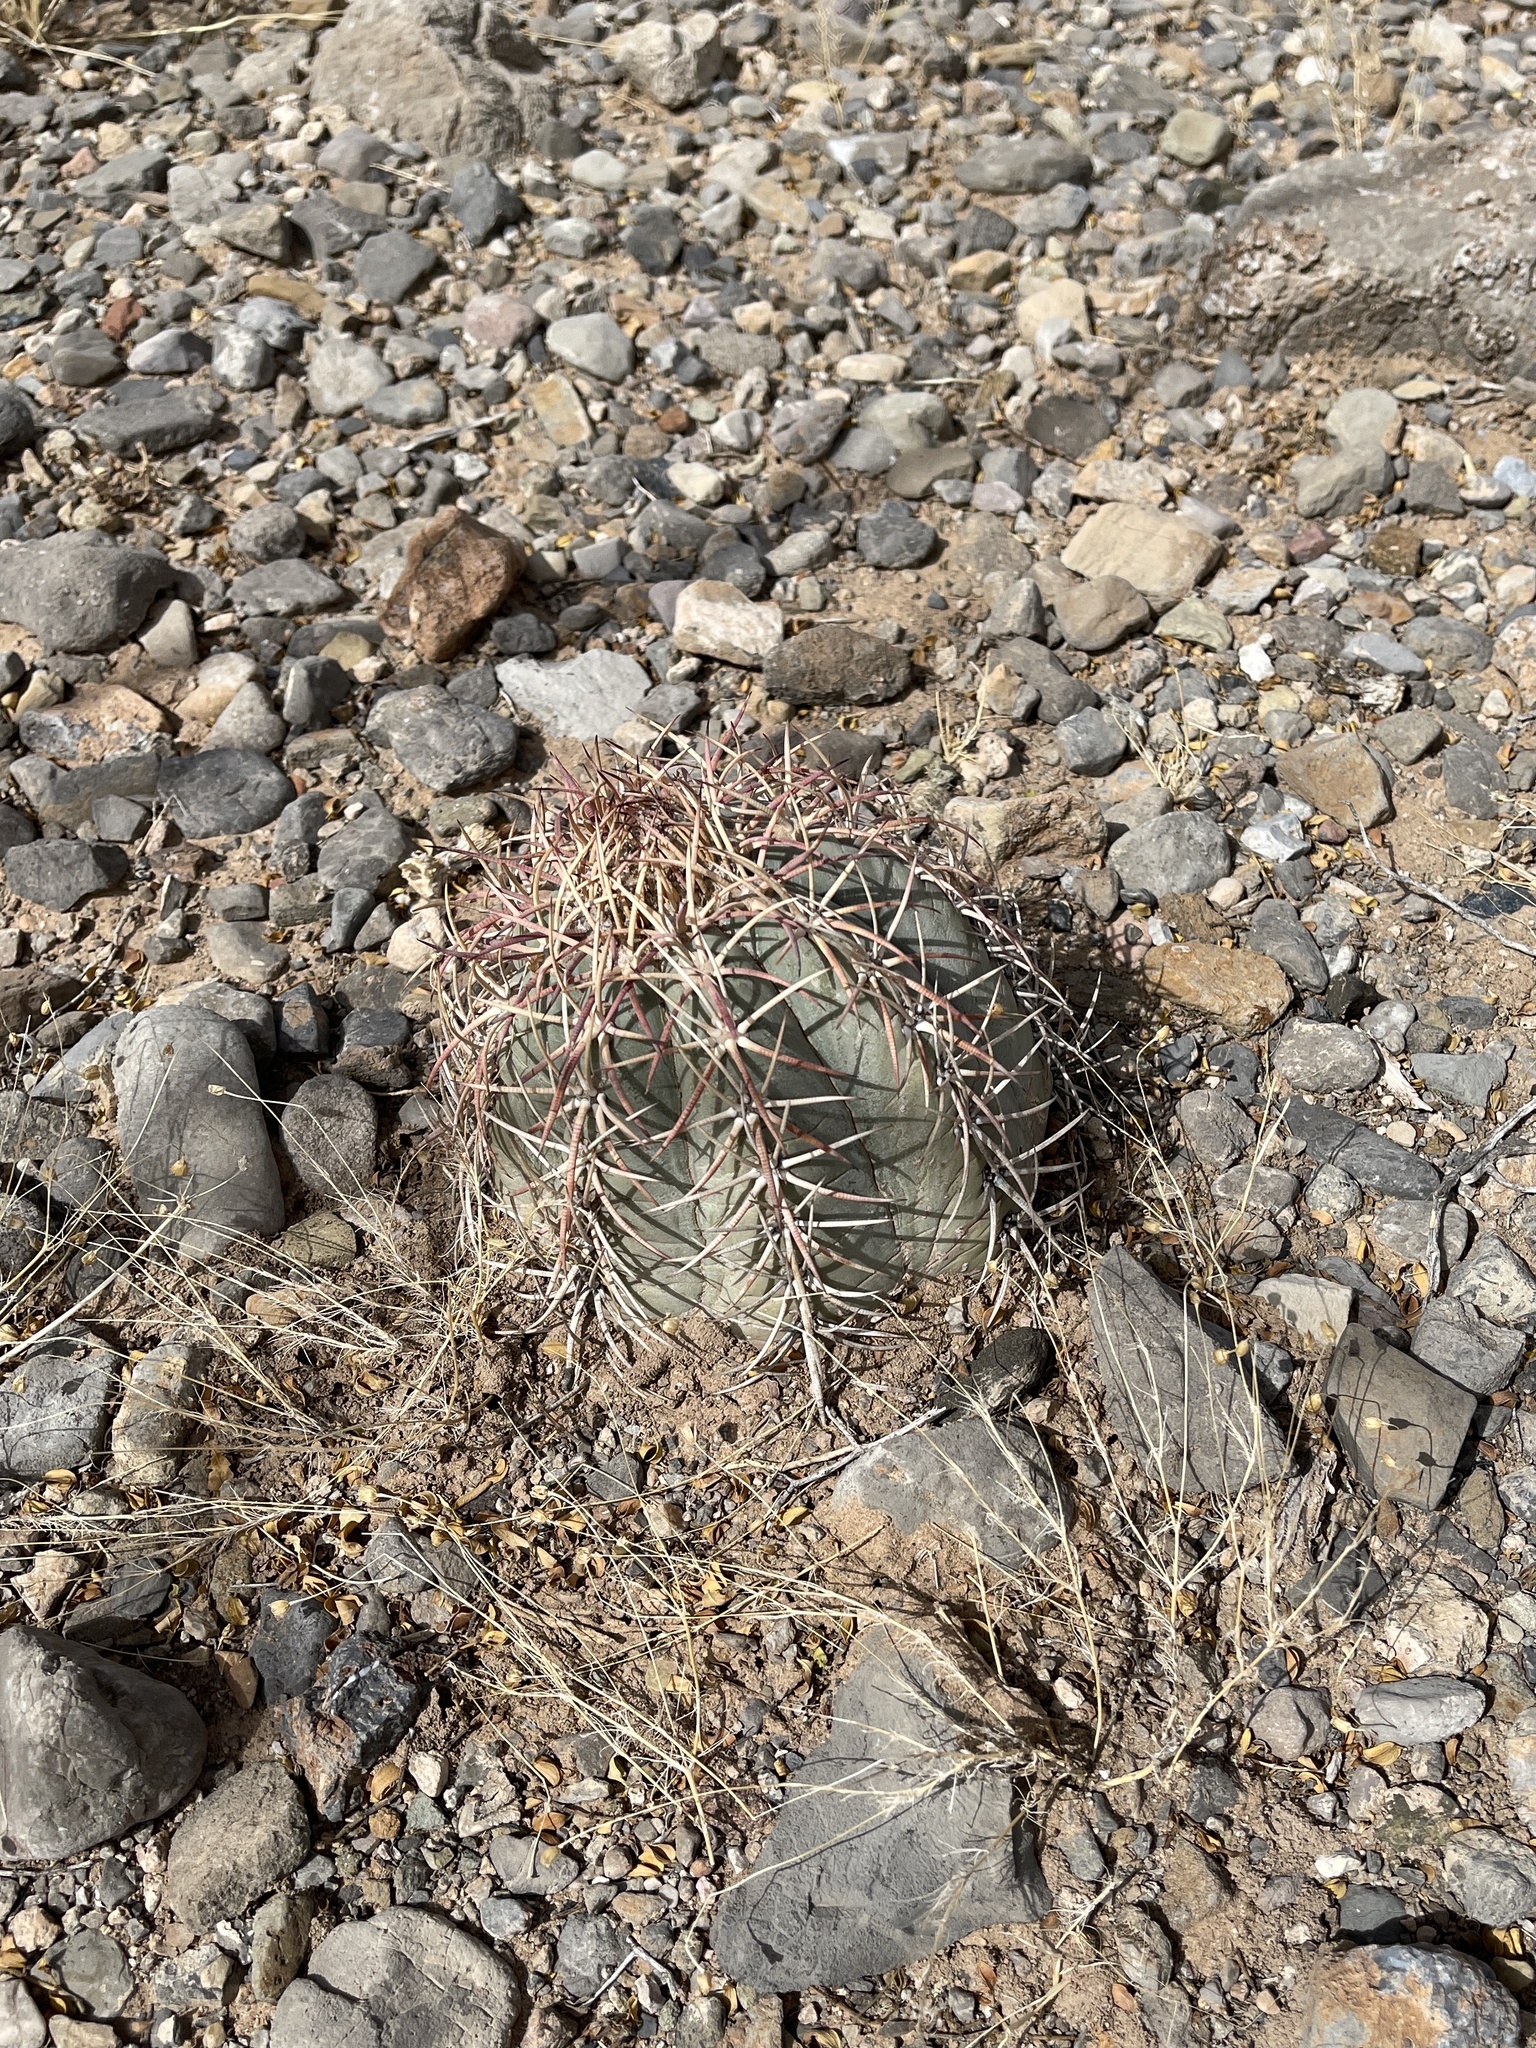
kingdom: Plantae
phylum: Tracheophyta
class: Magnoliopsida
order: Caryophyllales
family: Cactaceae
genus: Echinocactus
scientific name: Echinocactus horizonthalonius
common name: Devilshead
